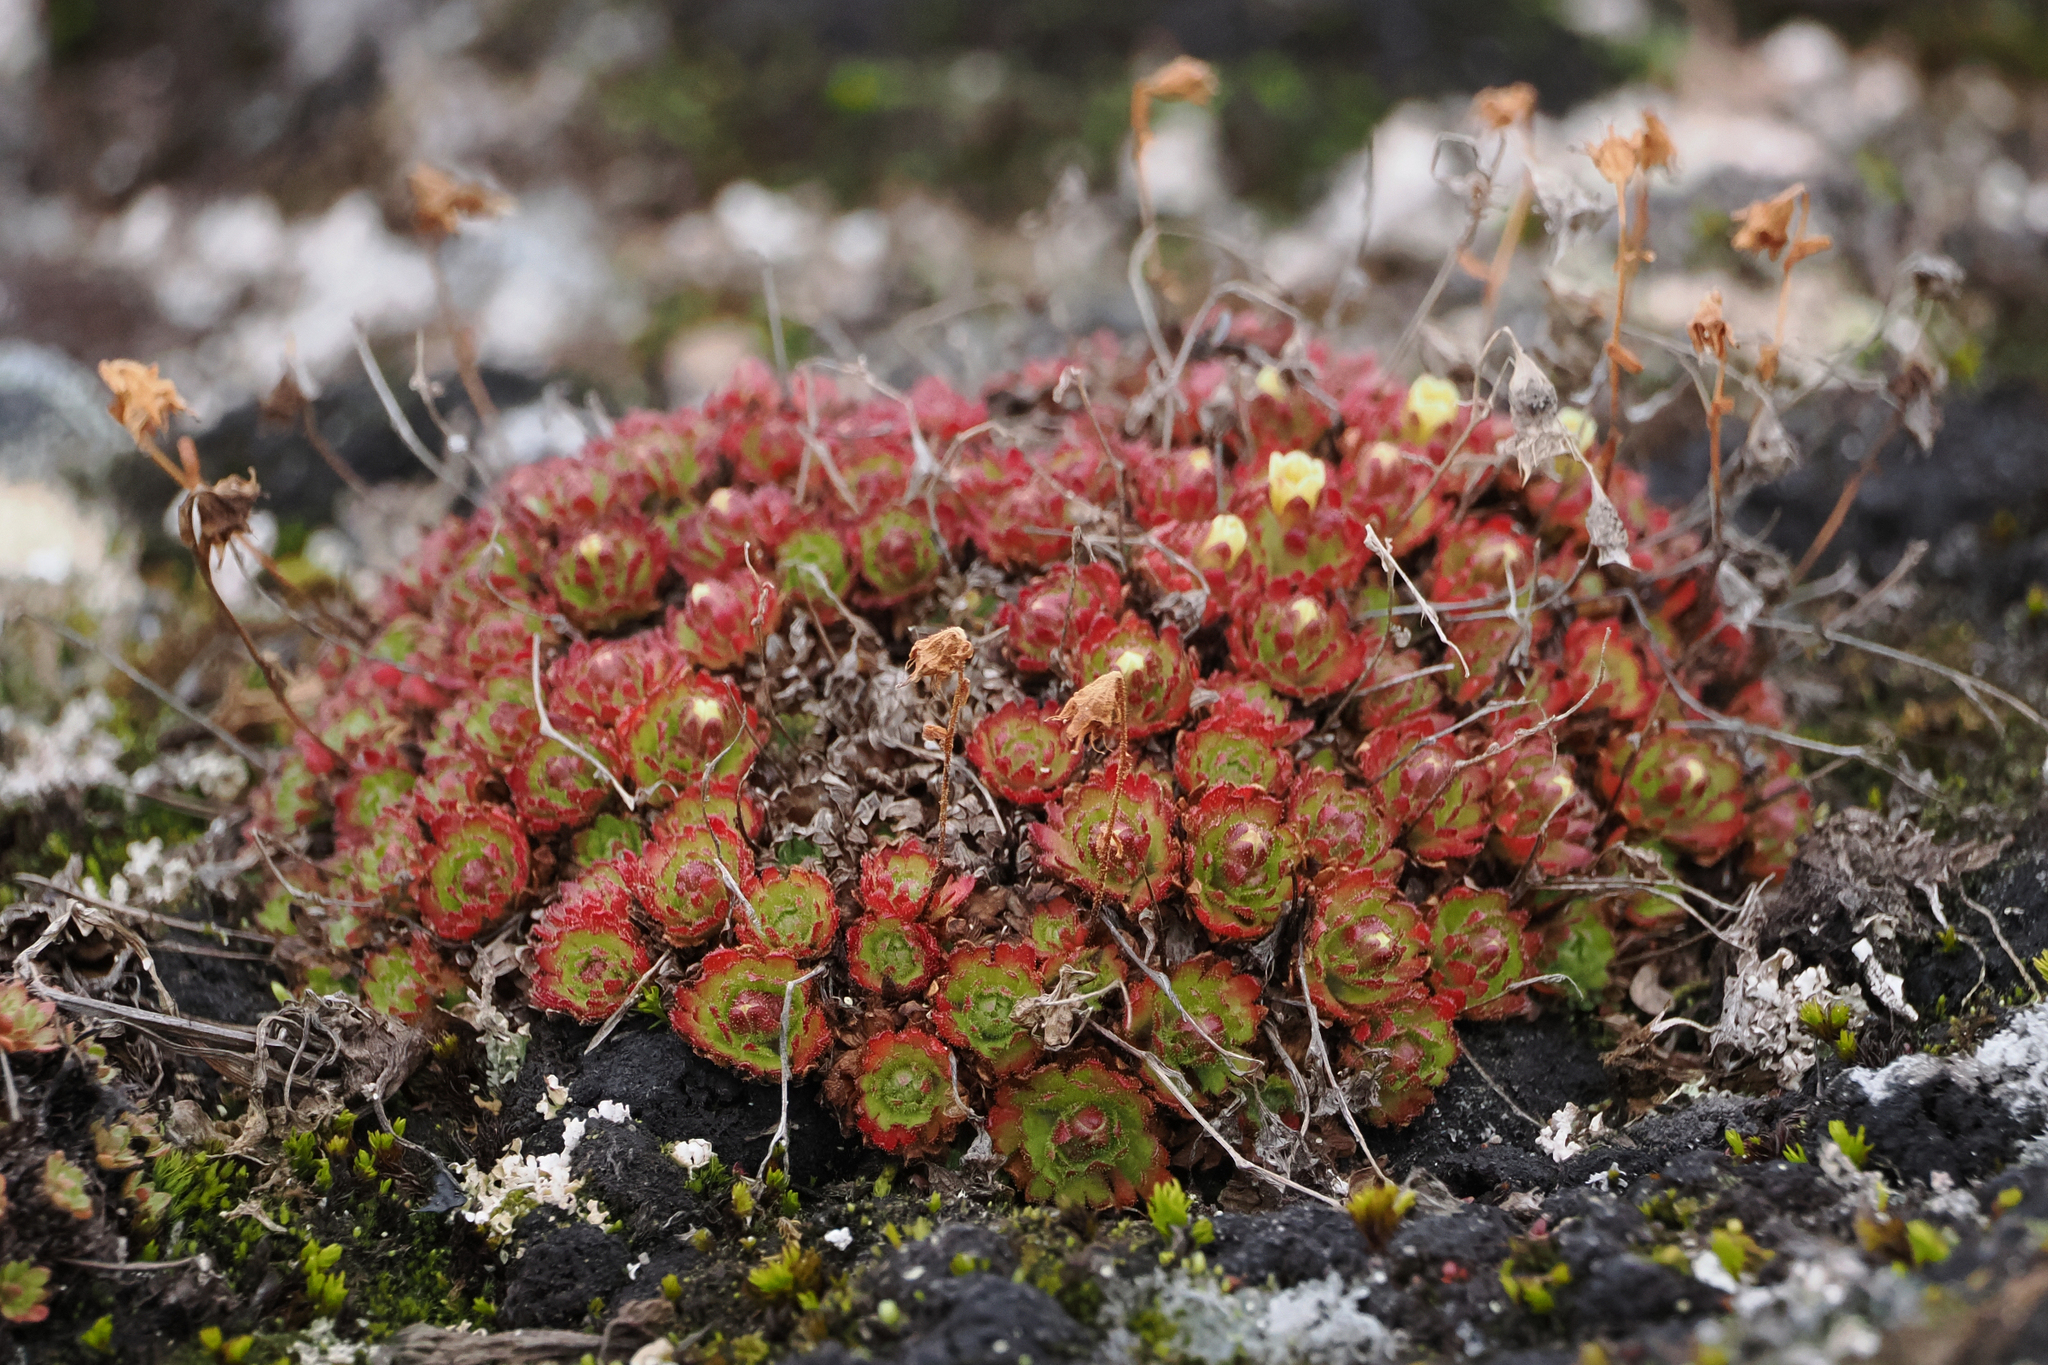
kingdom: Plantae
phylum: Tracheophyta
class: Magnoliopsida
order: Saxifragales
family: Saxifragaceae
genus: Saxifraga
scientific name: Saxifraga cespitosa
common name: Tufted saxifrage
